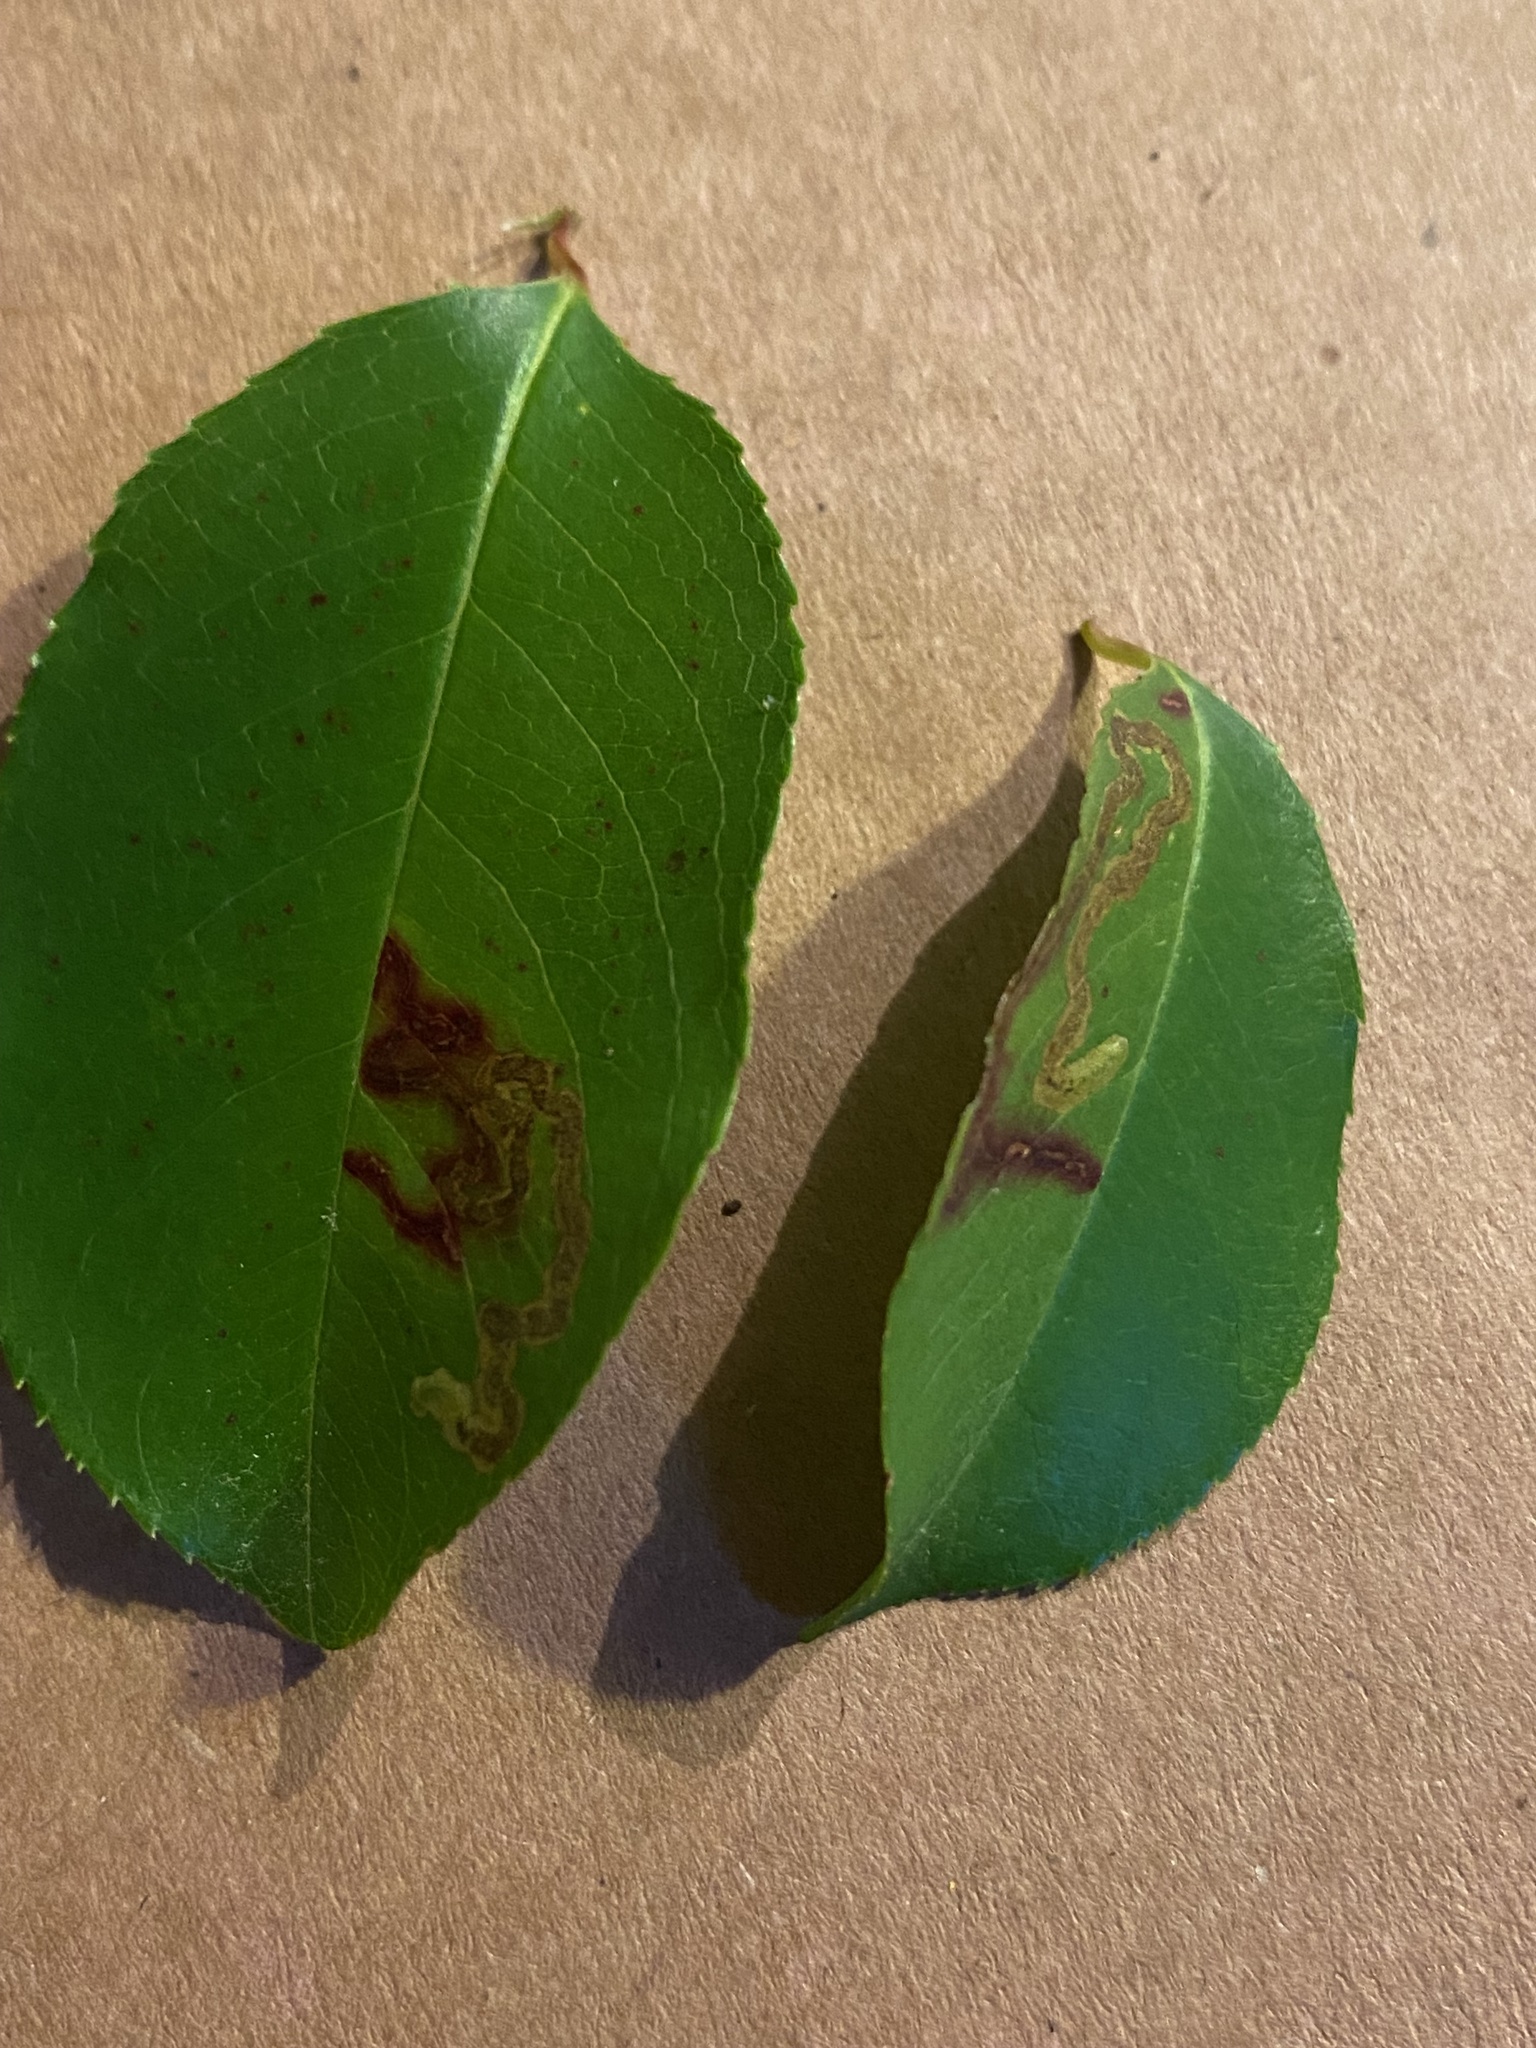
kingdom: Animalia
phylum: Arthropoda
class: Insecta
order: Lepidoptera
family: Nepticulidae
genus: Stigmella
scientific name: Stigmella prunifoliella
